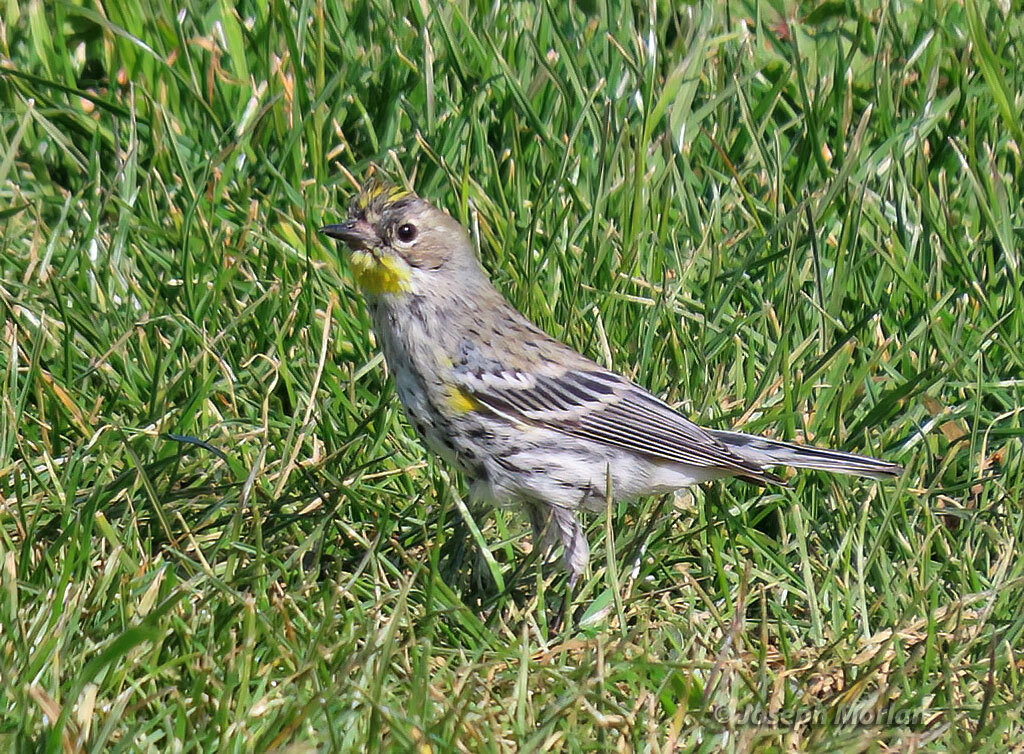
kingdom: Animalia
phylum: Chordata
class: Aves
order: Passeriformes
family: Parulidae
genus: Setophaga
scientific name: Setophaga coronata
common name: Myrtle warbler
